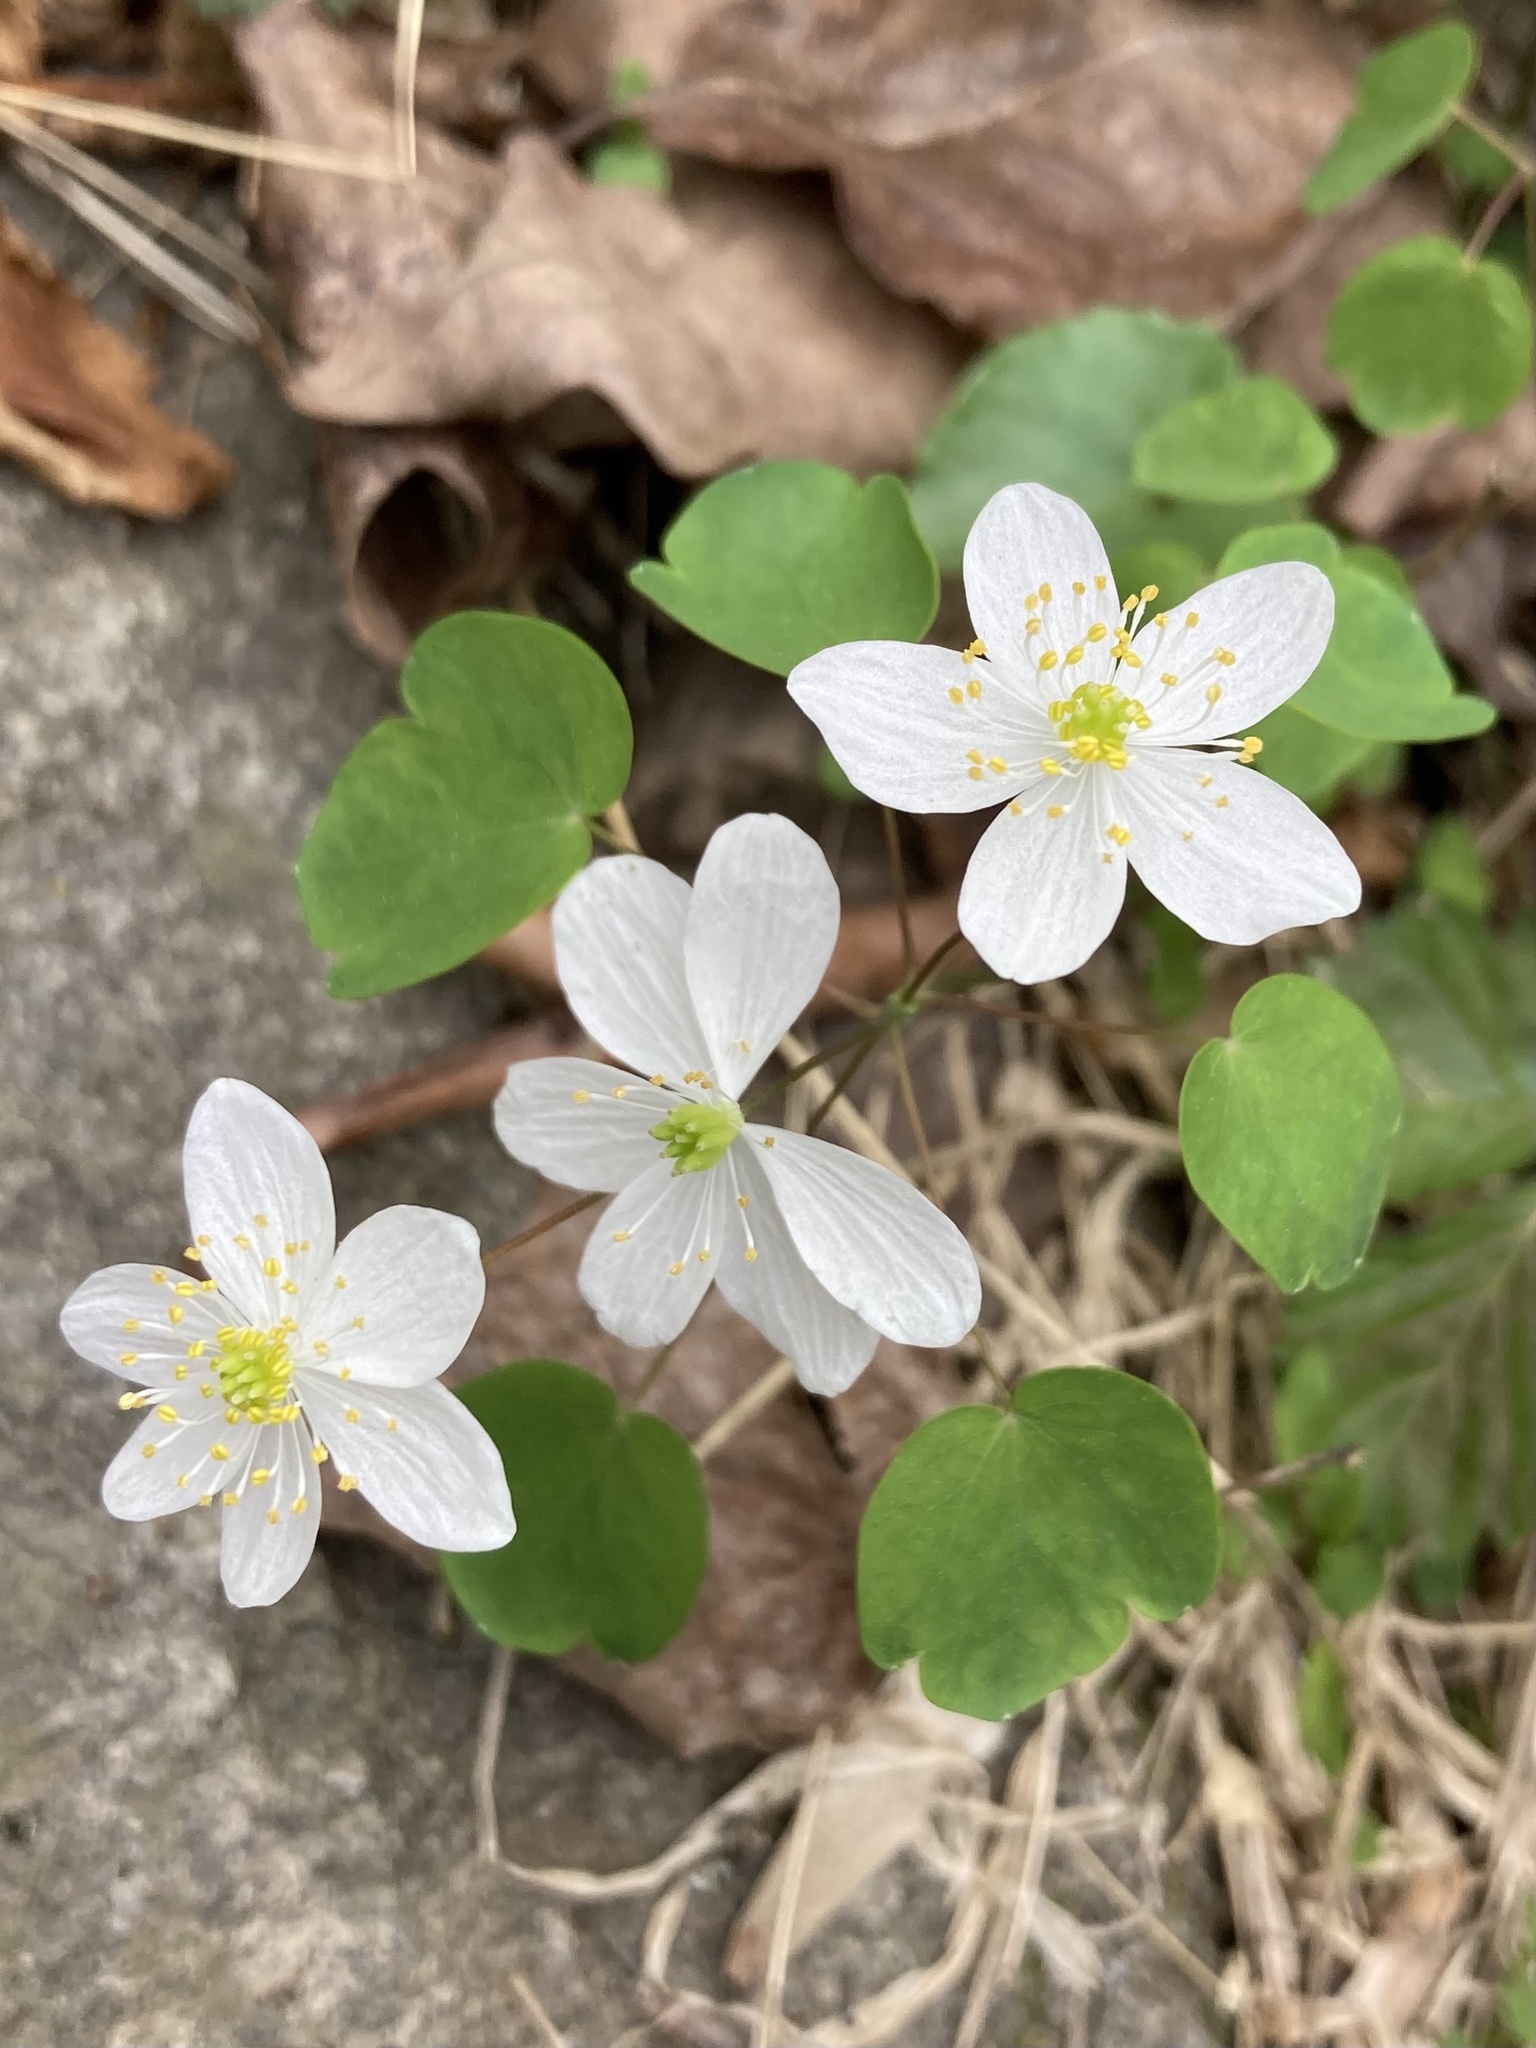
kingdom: Plantae
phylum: Tracheophyta
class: Magnoliopsida
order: Ranunculales
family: Ranunculaceae
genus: Thalictrum
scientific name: Thalictrum thalictroides
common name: Rue-anemone
